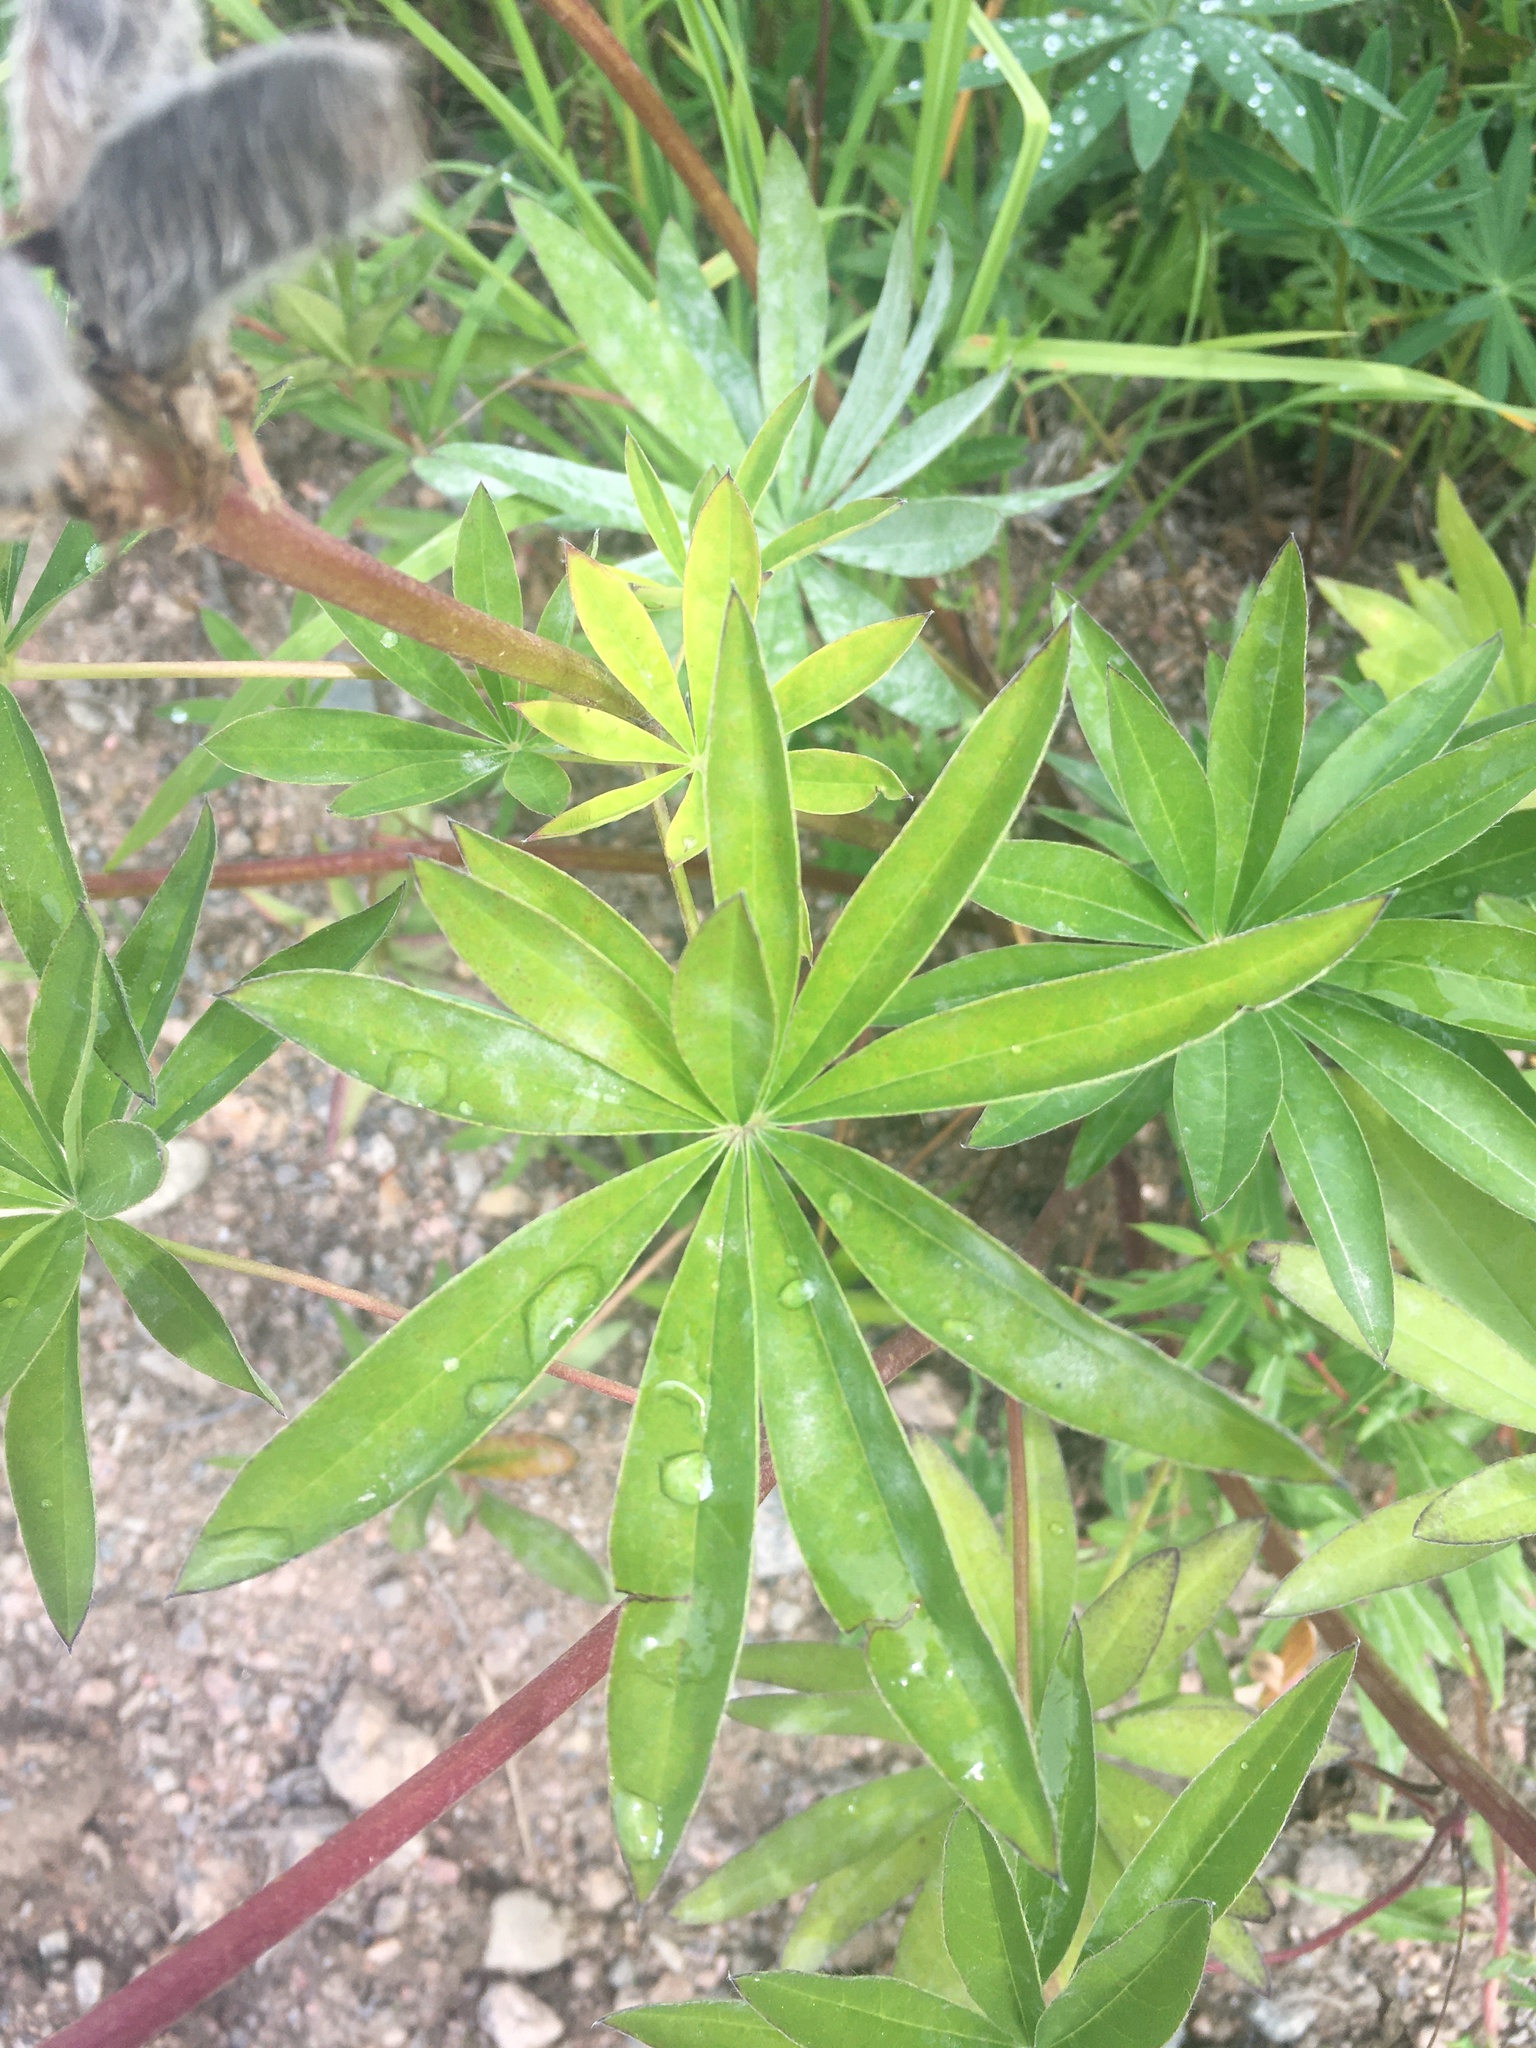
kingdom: Plantae
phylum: Tracheophyta
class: Magnoliopsida
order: Fabales
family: Fabaceae
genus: Lupinus
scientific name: Lupinus polyphyllus
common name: Garden lupin
